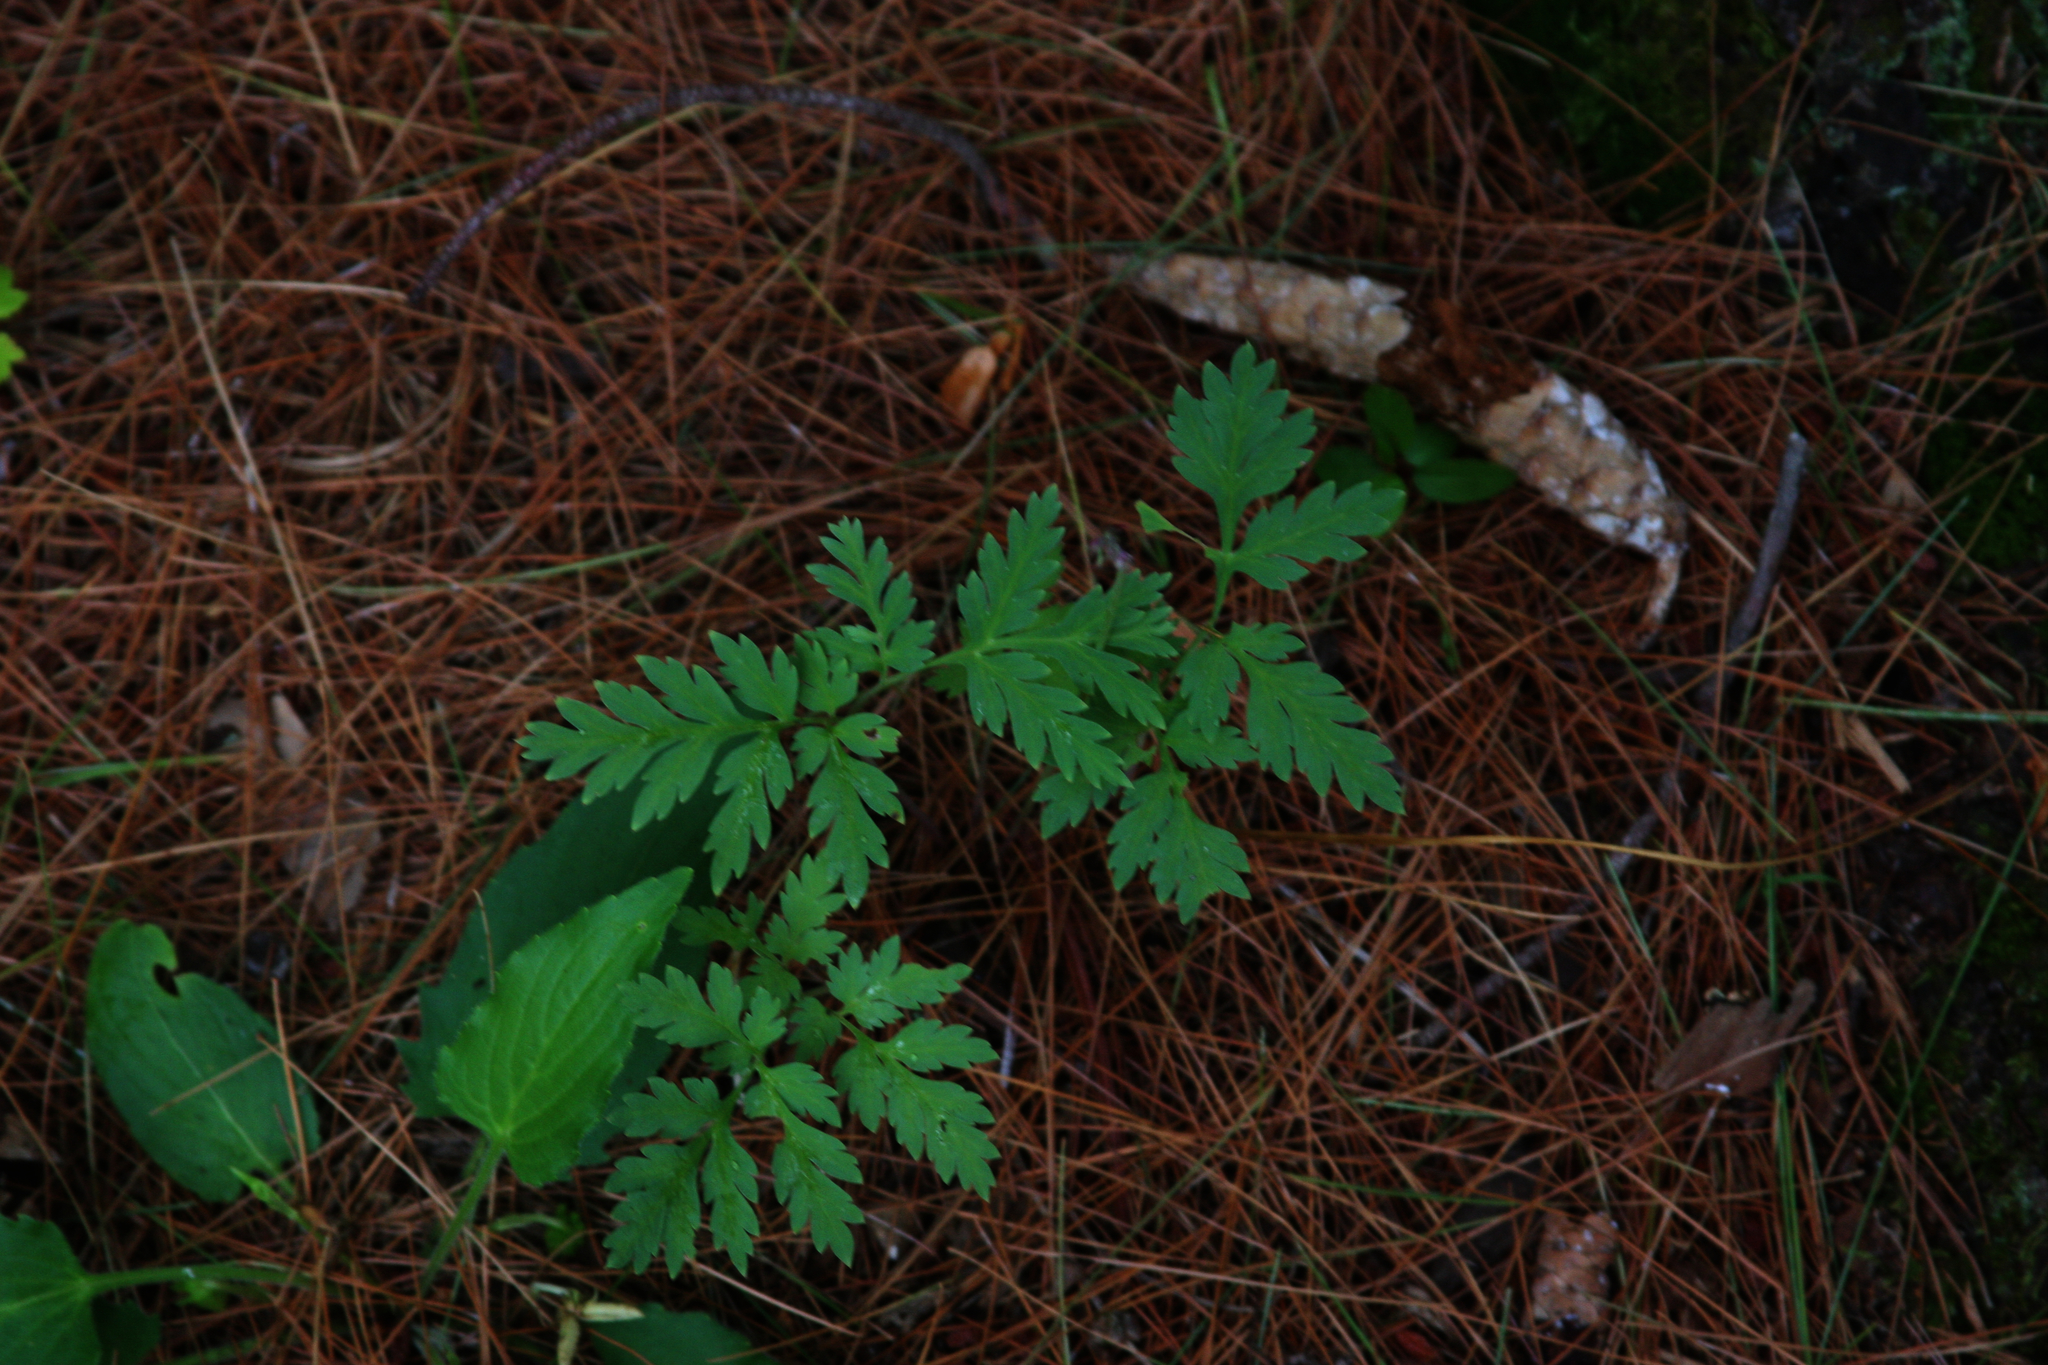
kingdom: Plantae
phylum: Tracheophyta
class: Magnoliopsida
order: Asterales
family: Asteraceae
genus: Ambrosia
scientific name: Ambrosia artemisiifolia
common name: Annual ragweed
